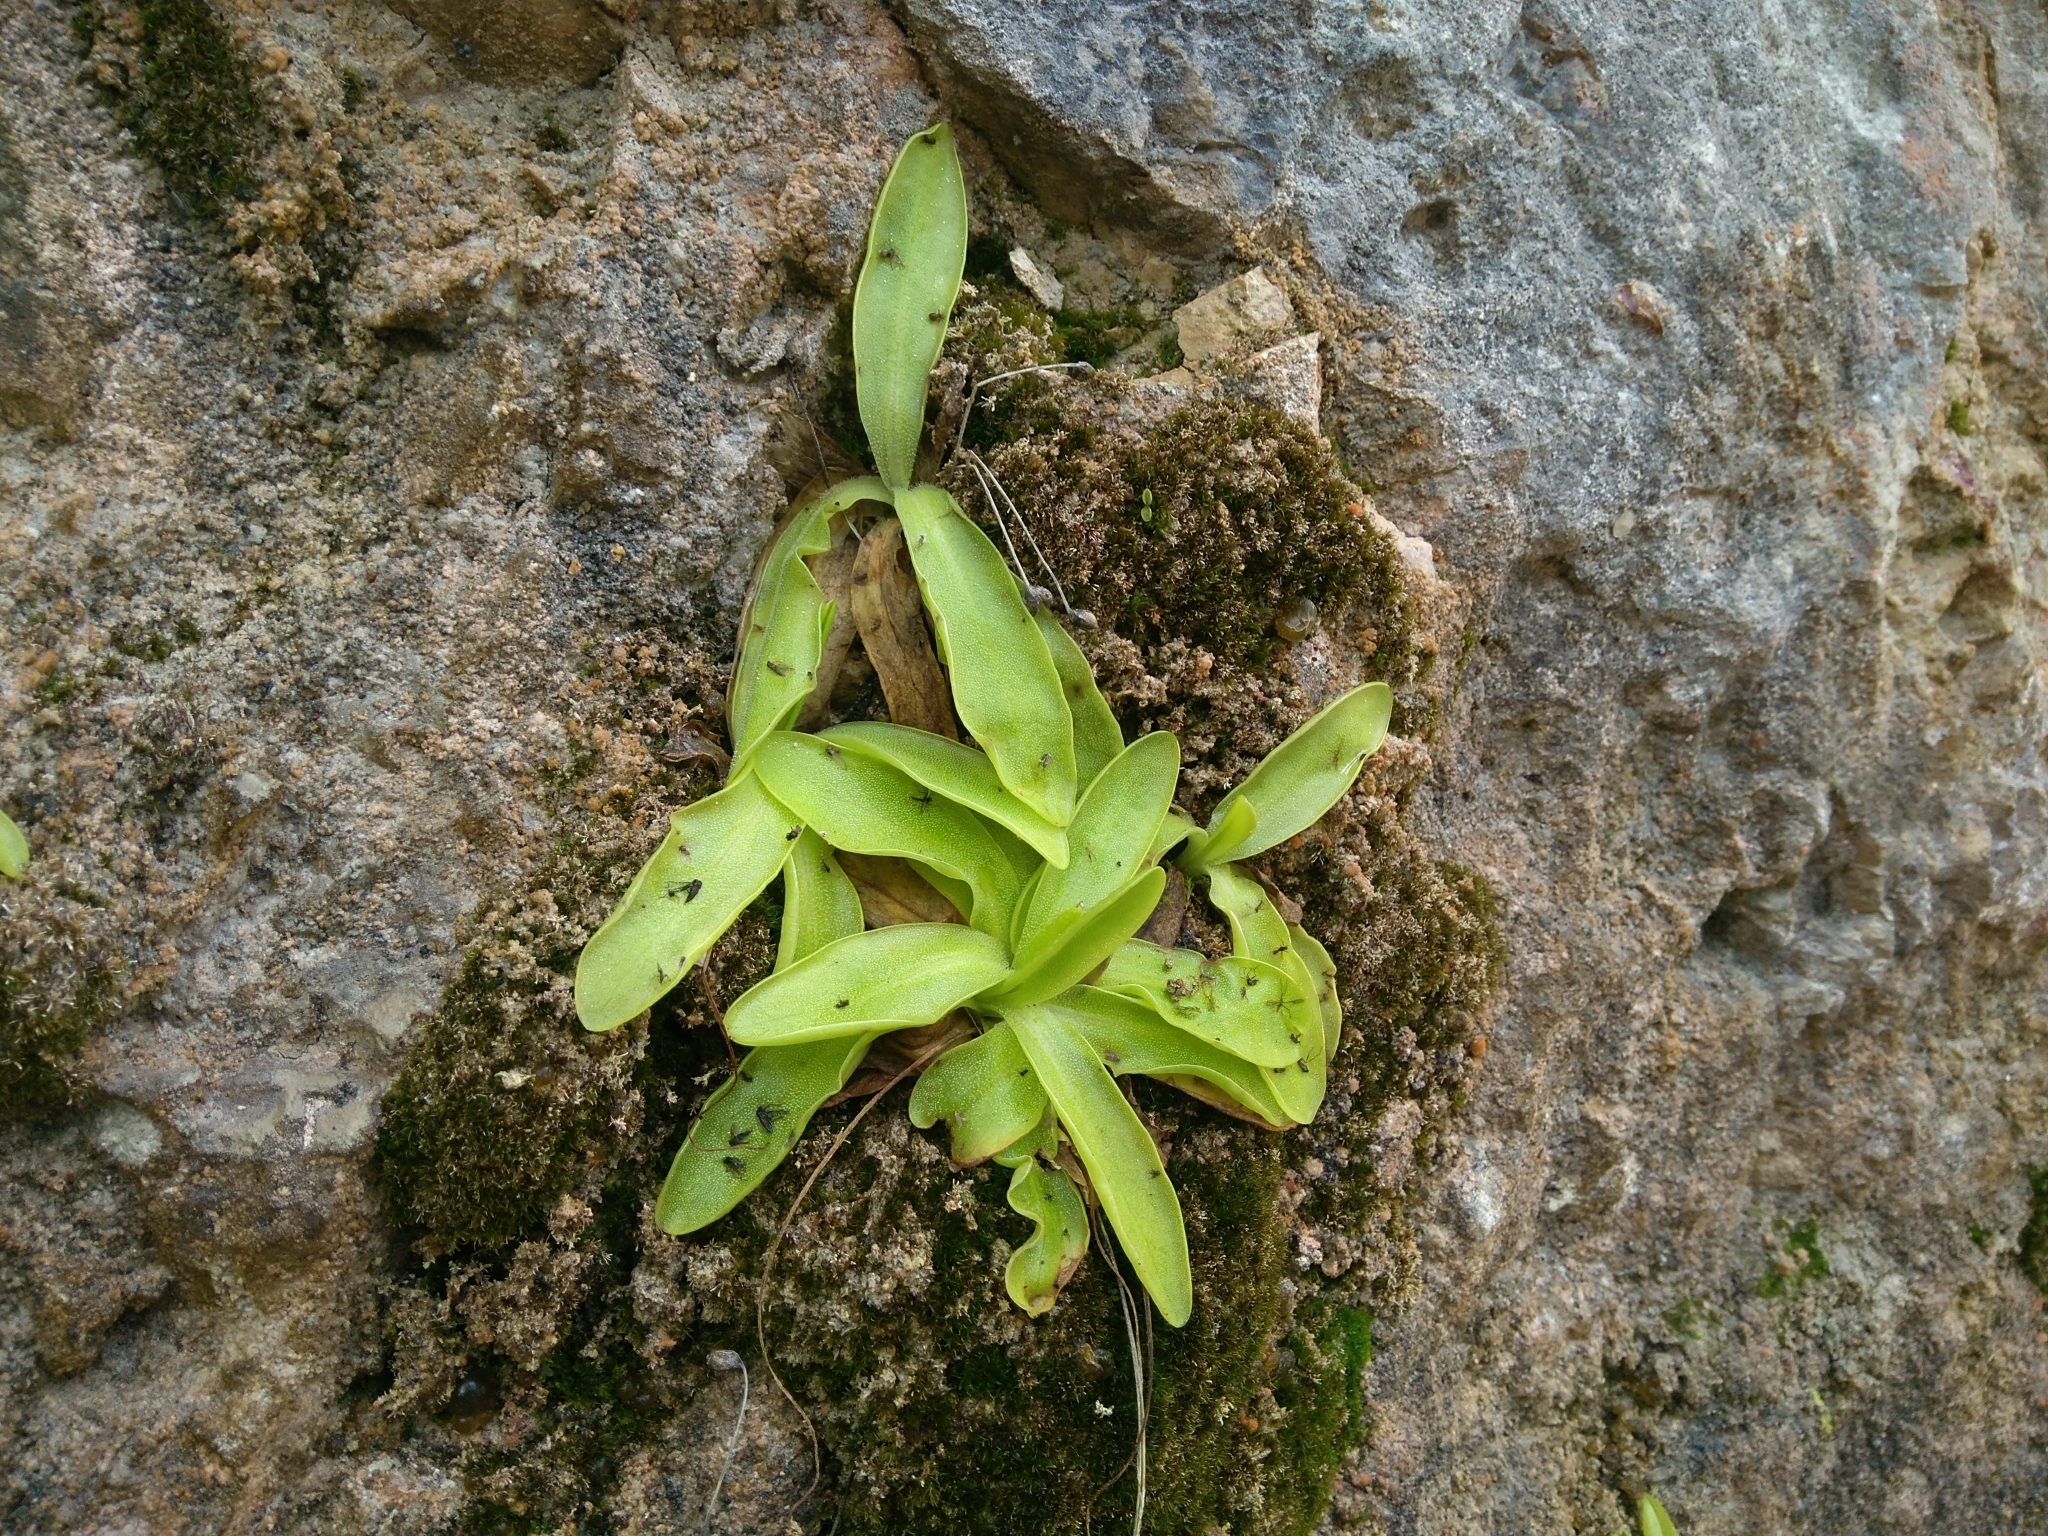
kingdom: Plantae
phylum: Tracheophyta
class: Magnoliopsida
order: Lamiales
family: Lentibulariaceae
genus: Pinguicula
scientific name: Pinguicula dertosensis
